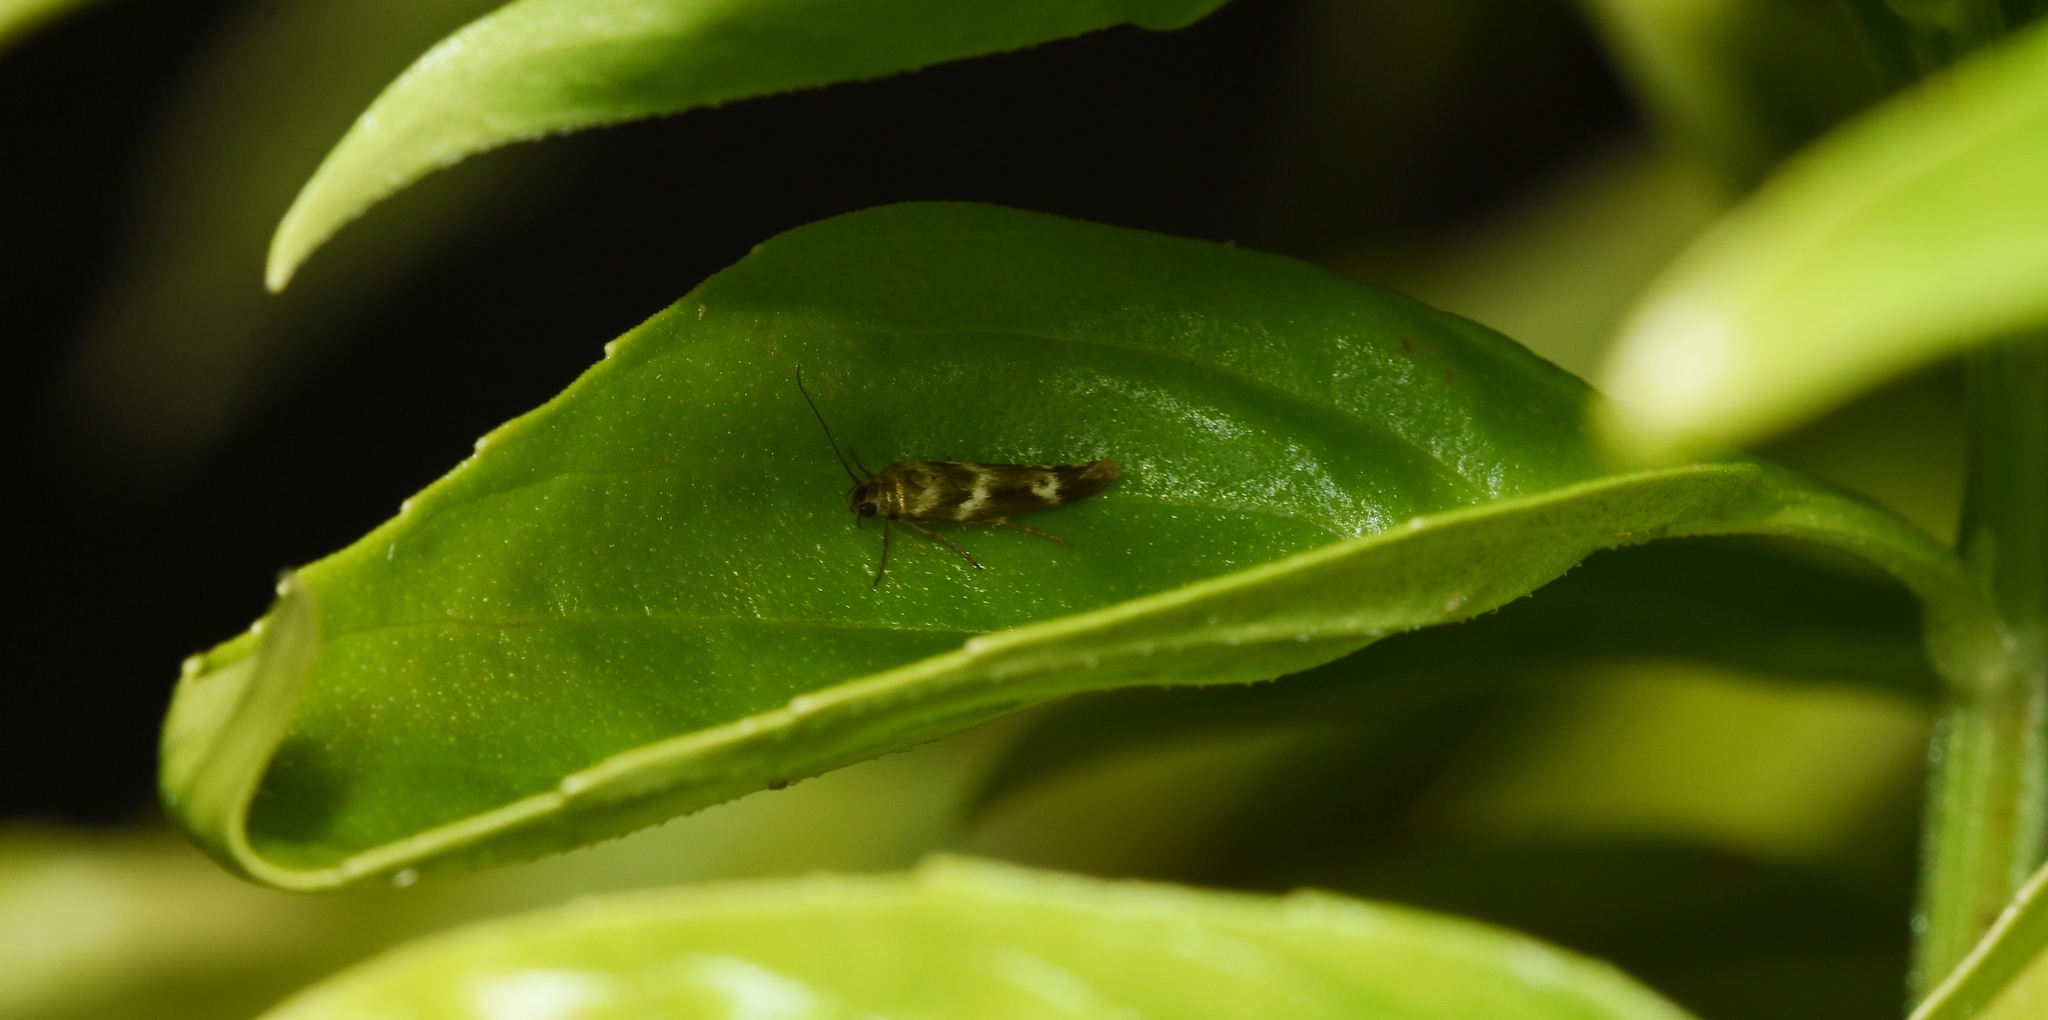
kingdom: Animalia
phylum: Arthropoda
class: Insecta
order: Lepidoptera
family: Scythrididae
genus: Scythris
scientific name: Scythris trivinctella
